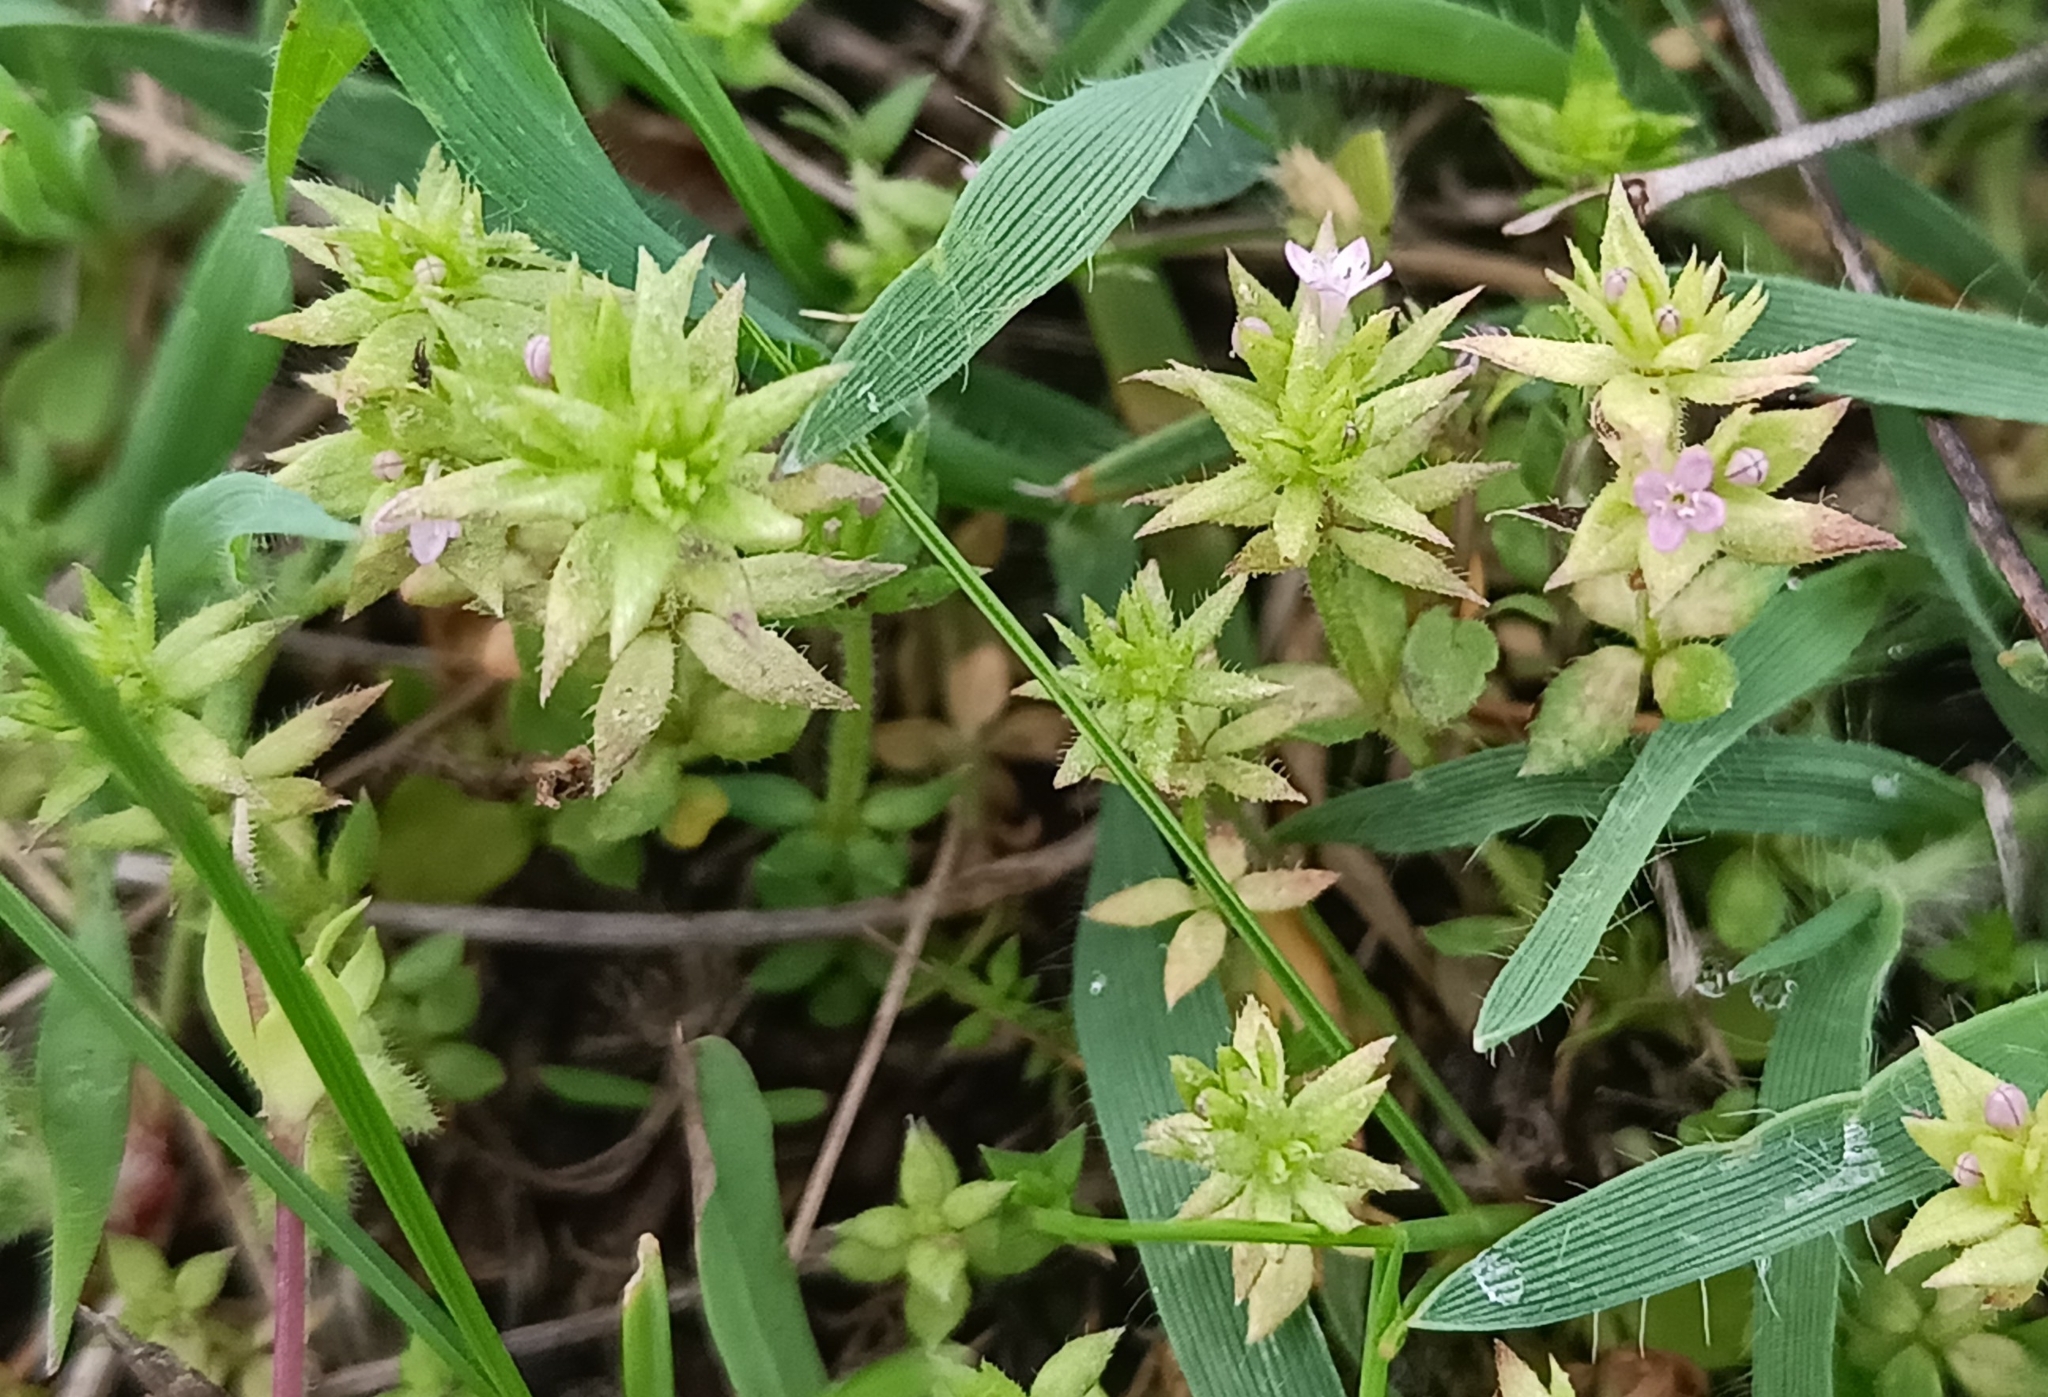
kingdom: Plantae
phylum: Tracheophyta
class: Magnoliopsida
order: Gentianales
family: Rubiaceae
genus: Sherardia
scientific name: Sherardia arvensis
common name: Field madder
